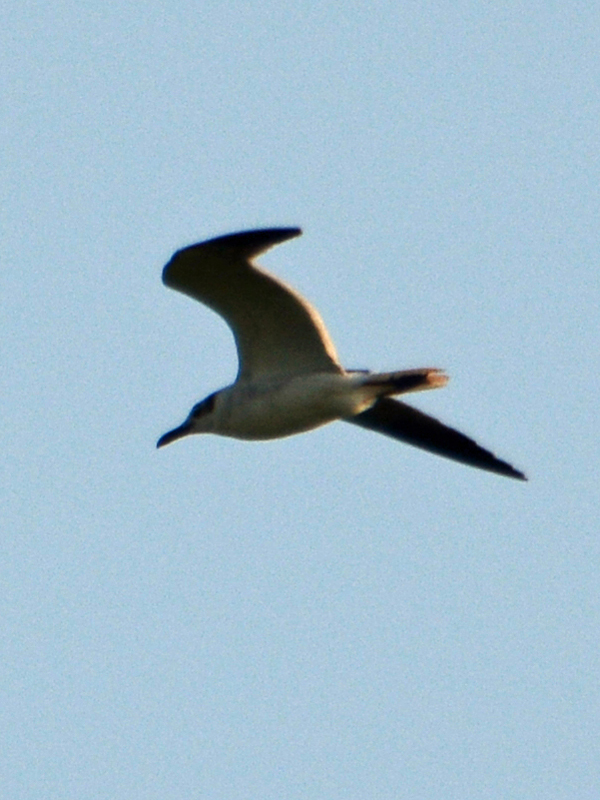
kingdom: Animalia
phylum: Chordata
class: Aves
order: Charadriiformes
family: Laridae
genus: Leucophaeus
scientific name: Leucophaeus atricilla
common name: Laughing gull
